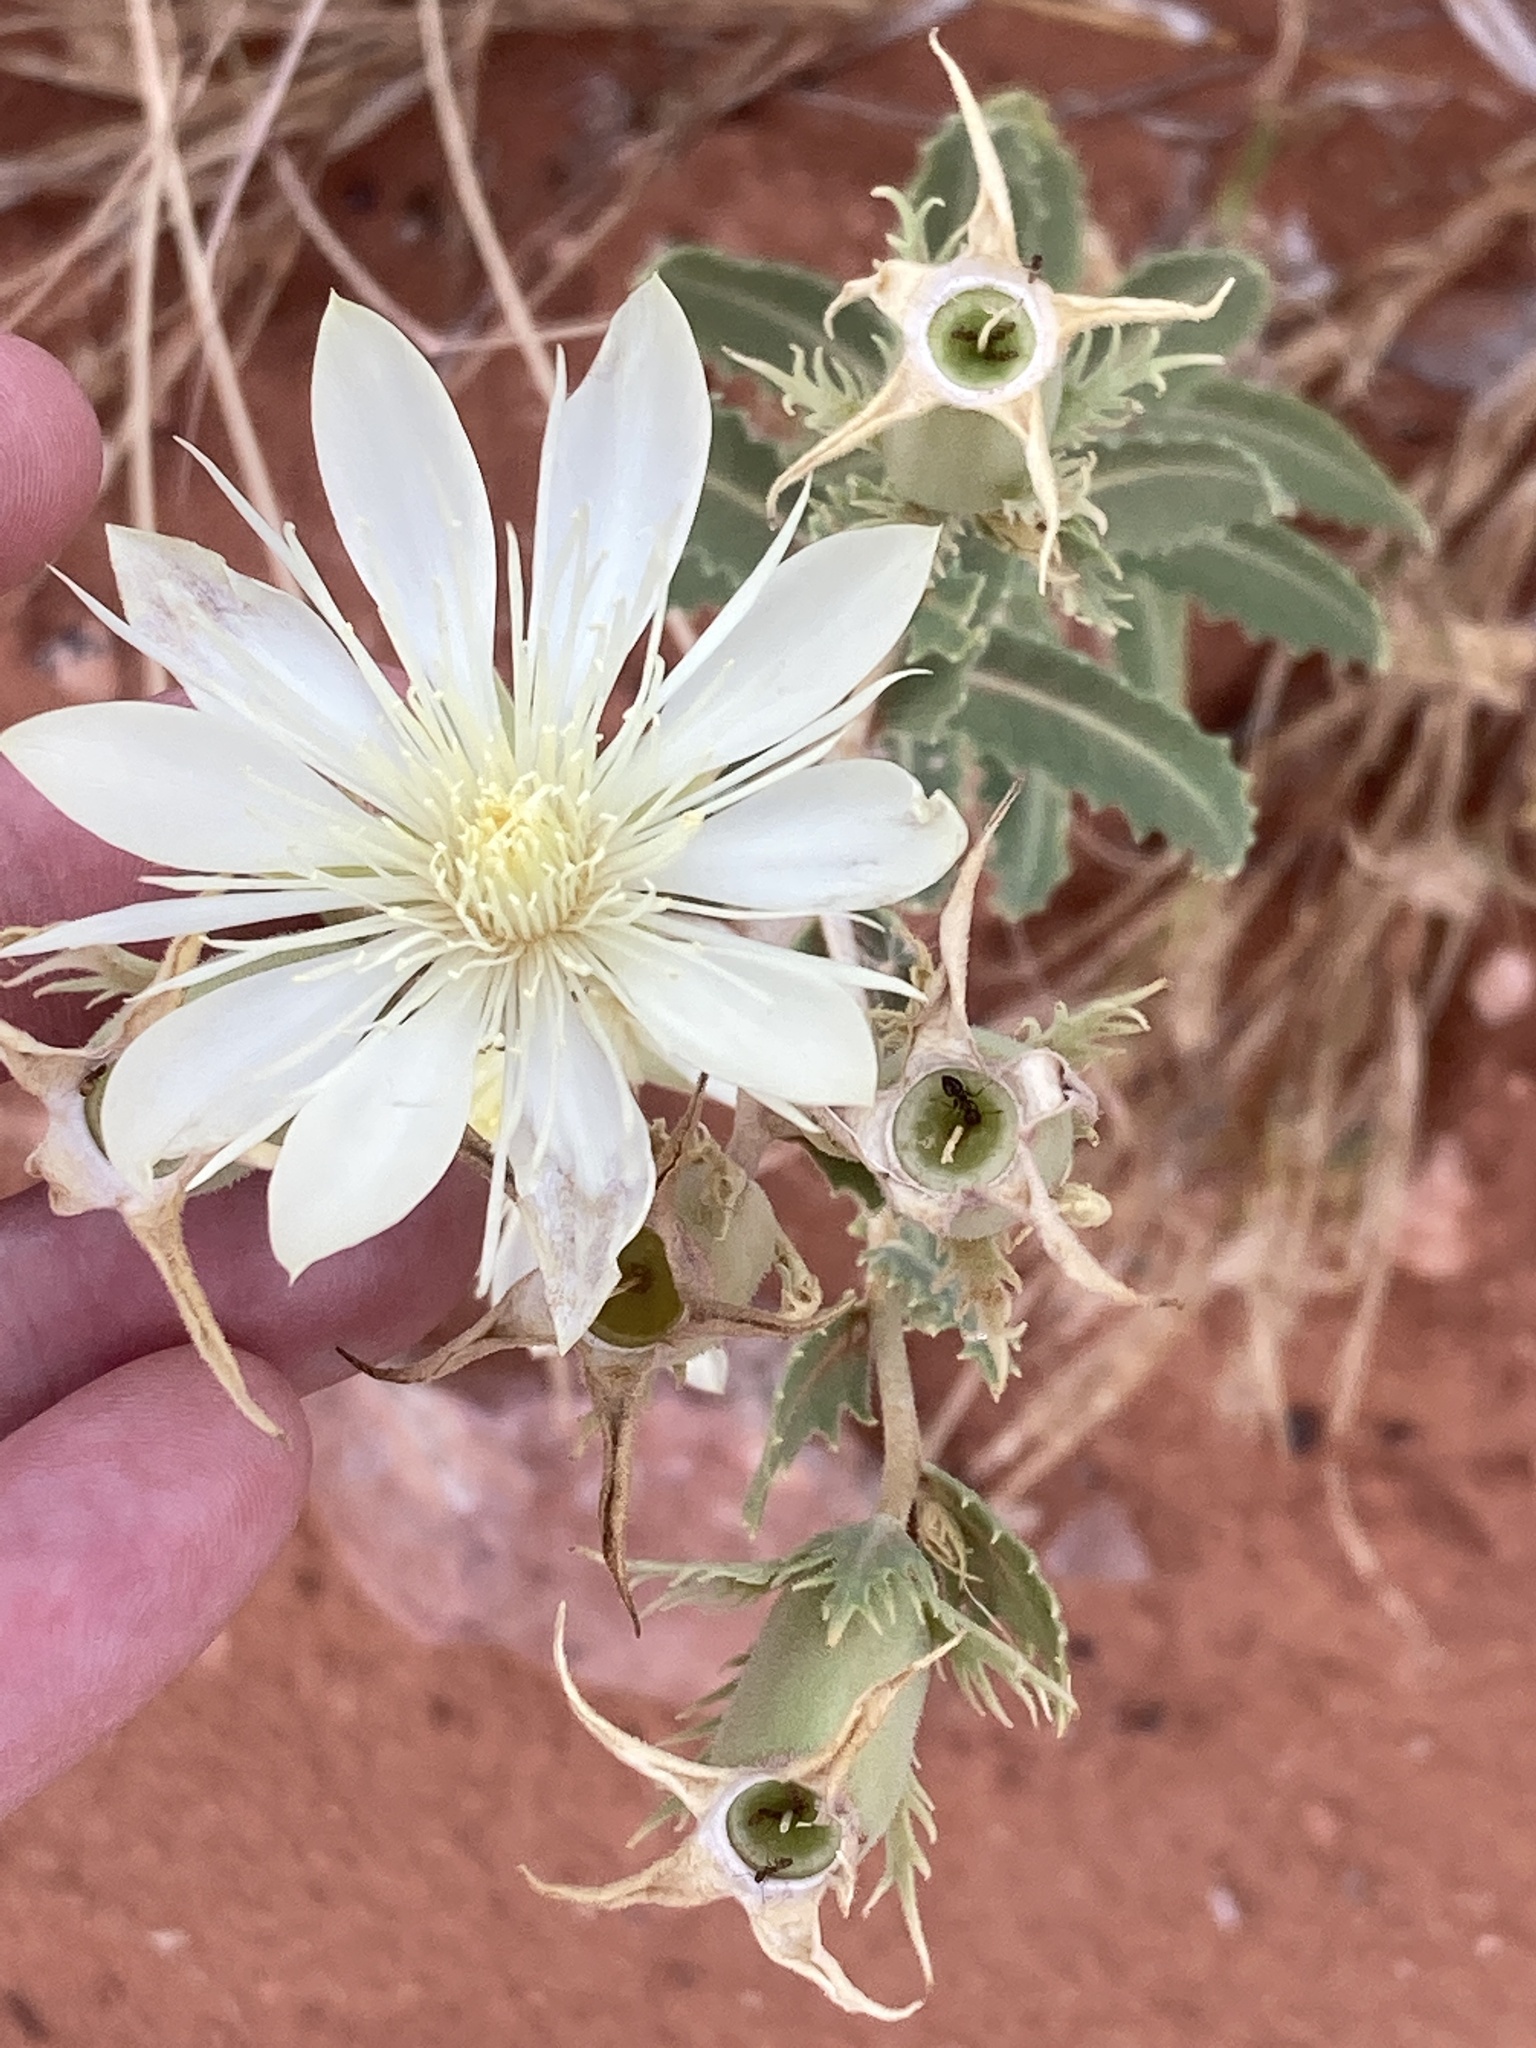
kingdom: Plantae
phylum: Tracheophyta
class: Magnoliopsida
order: Cornales
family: Loasaceae
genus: Mentzelia
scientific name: Mentzelia nuda
